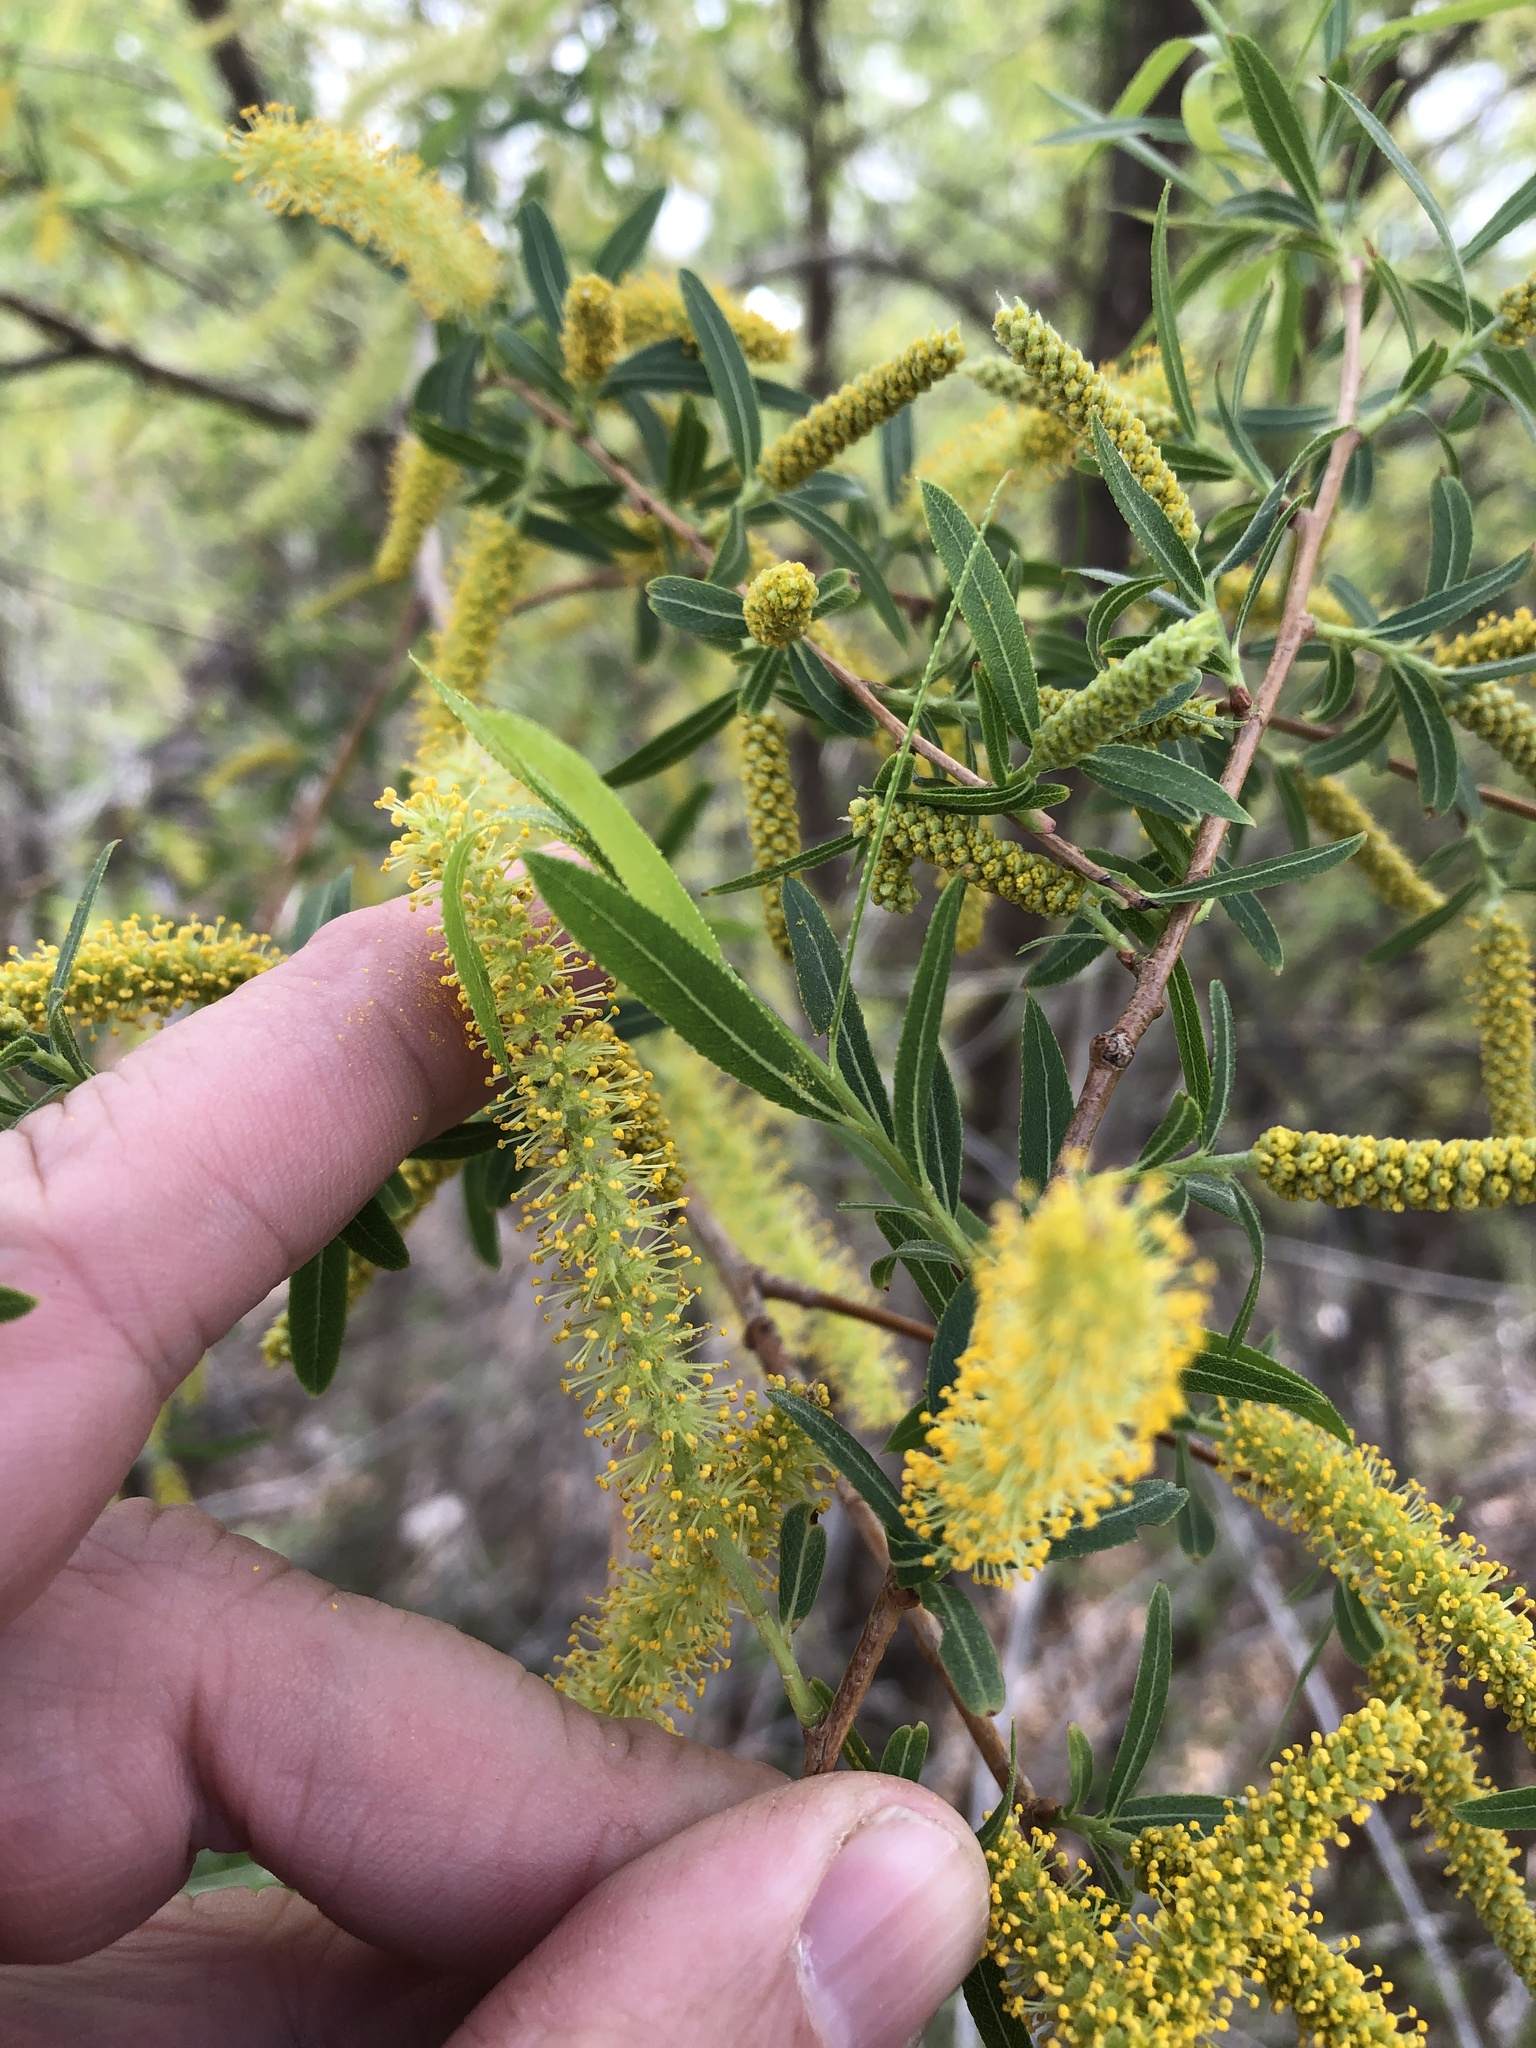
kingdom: Plantae
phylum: Tracheophyta
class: Magnoliopsida
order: Malpighiales
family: Salicaceae
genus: Salix
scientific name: Salix nigra
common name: Black willow
